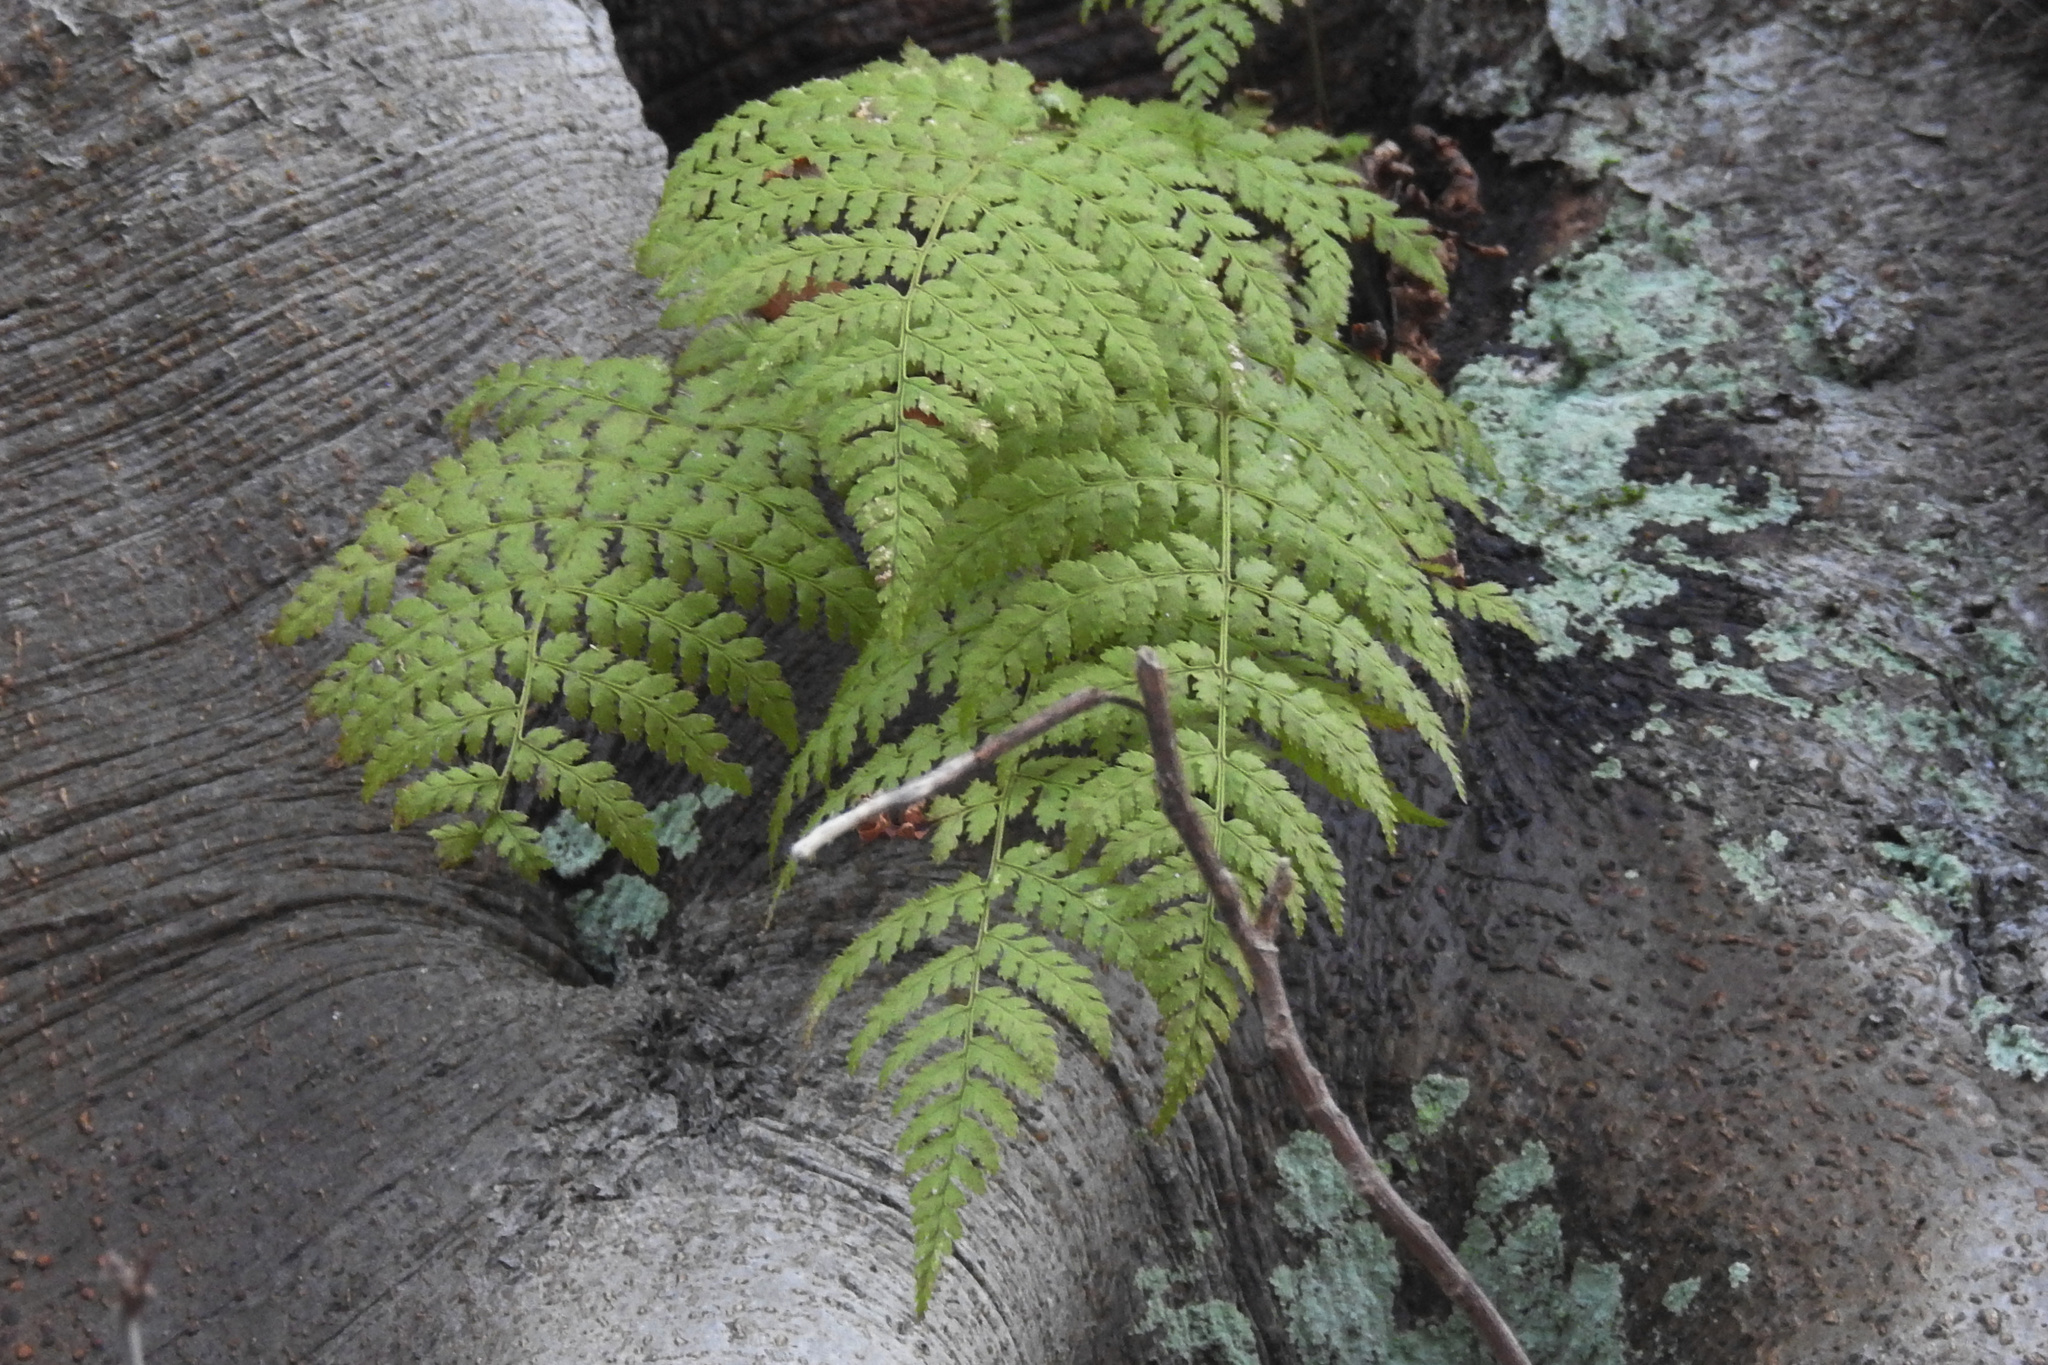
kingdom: Plantae
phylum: Tracheophyta
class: Polypodiopsida
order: Polypodiales
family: Dryopteridaceae
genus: Dryopteris
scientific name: Dryopteris intermedia
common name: Evergreen wood fern
